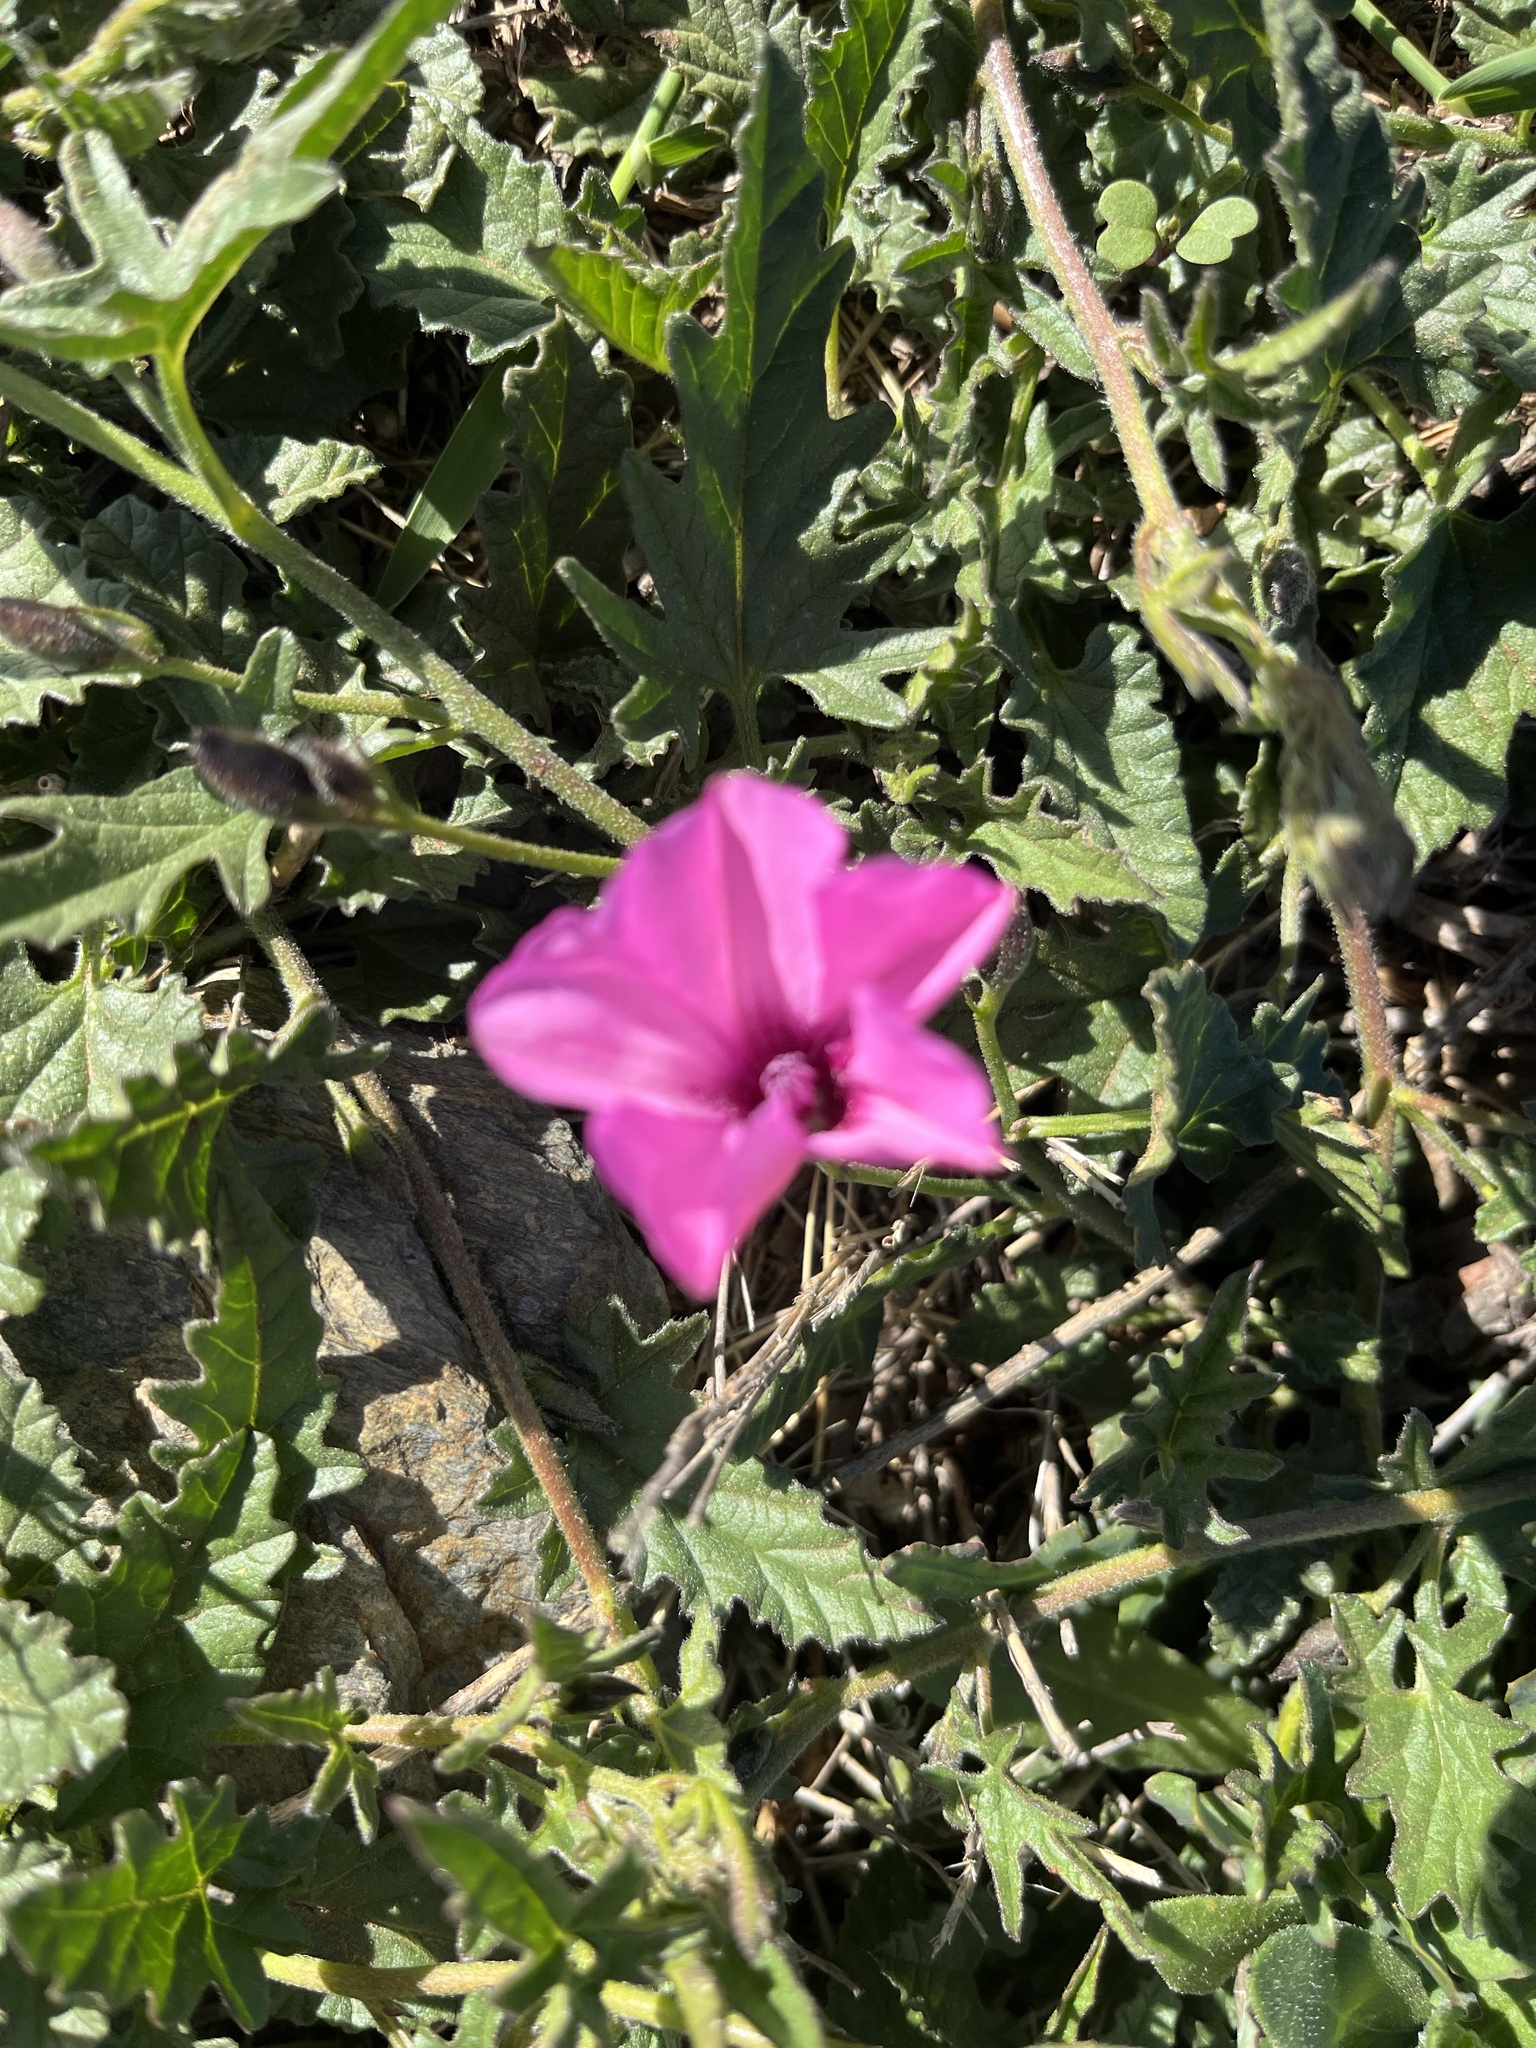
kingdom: Plantae
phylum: Tracheophyta
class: Magnoliopsida
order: Solanales
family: Convolvulaceae
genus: Convolvulus
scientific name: Convolvulus althaeoides
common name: Mallow bindweed
